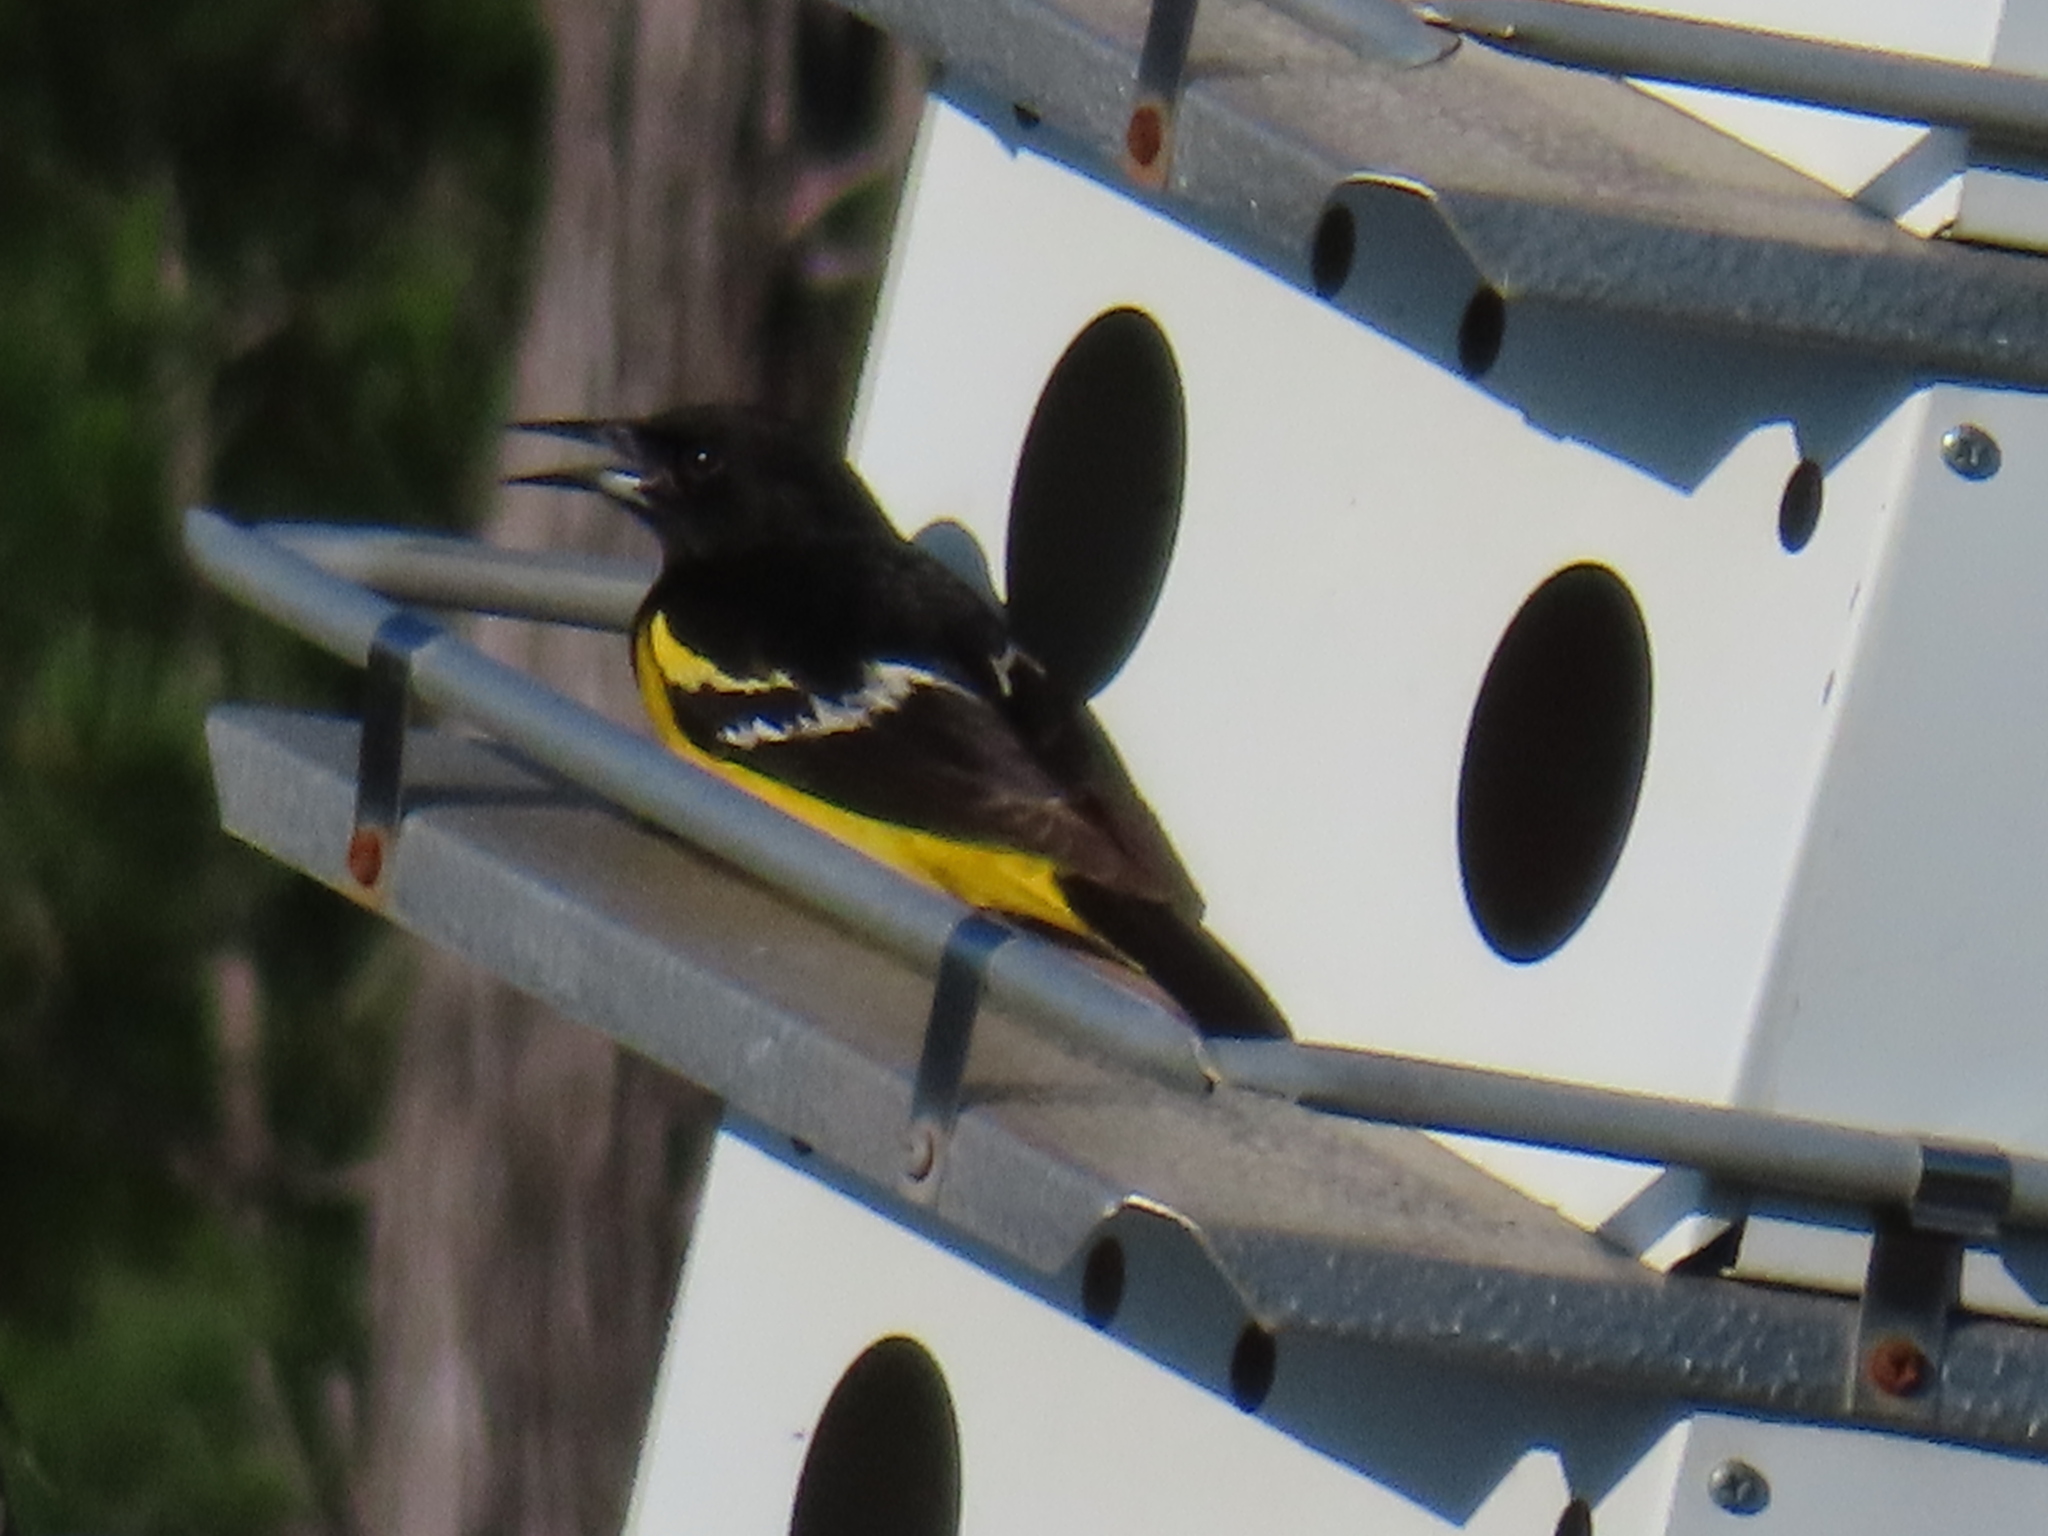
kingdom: Animalia
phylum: Chordata
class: Aves
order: Passeriformes
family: Icteridae
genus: Icterus
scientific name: Icterus parisorum
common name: Scott's oriole
